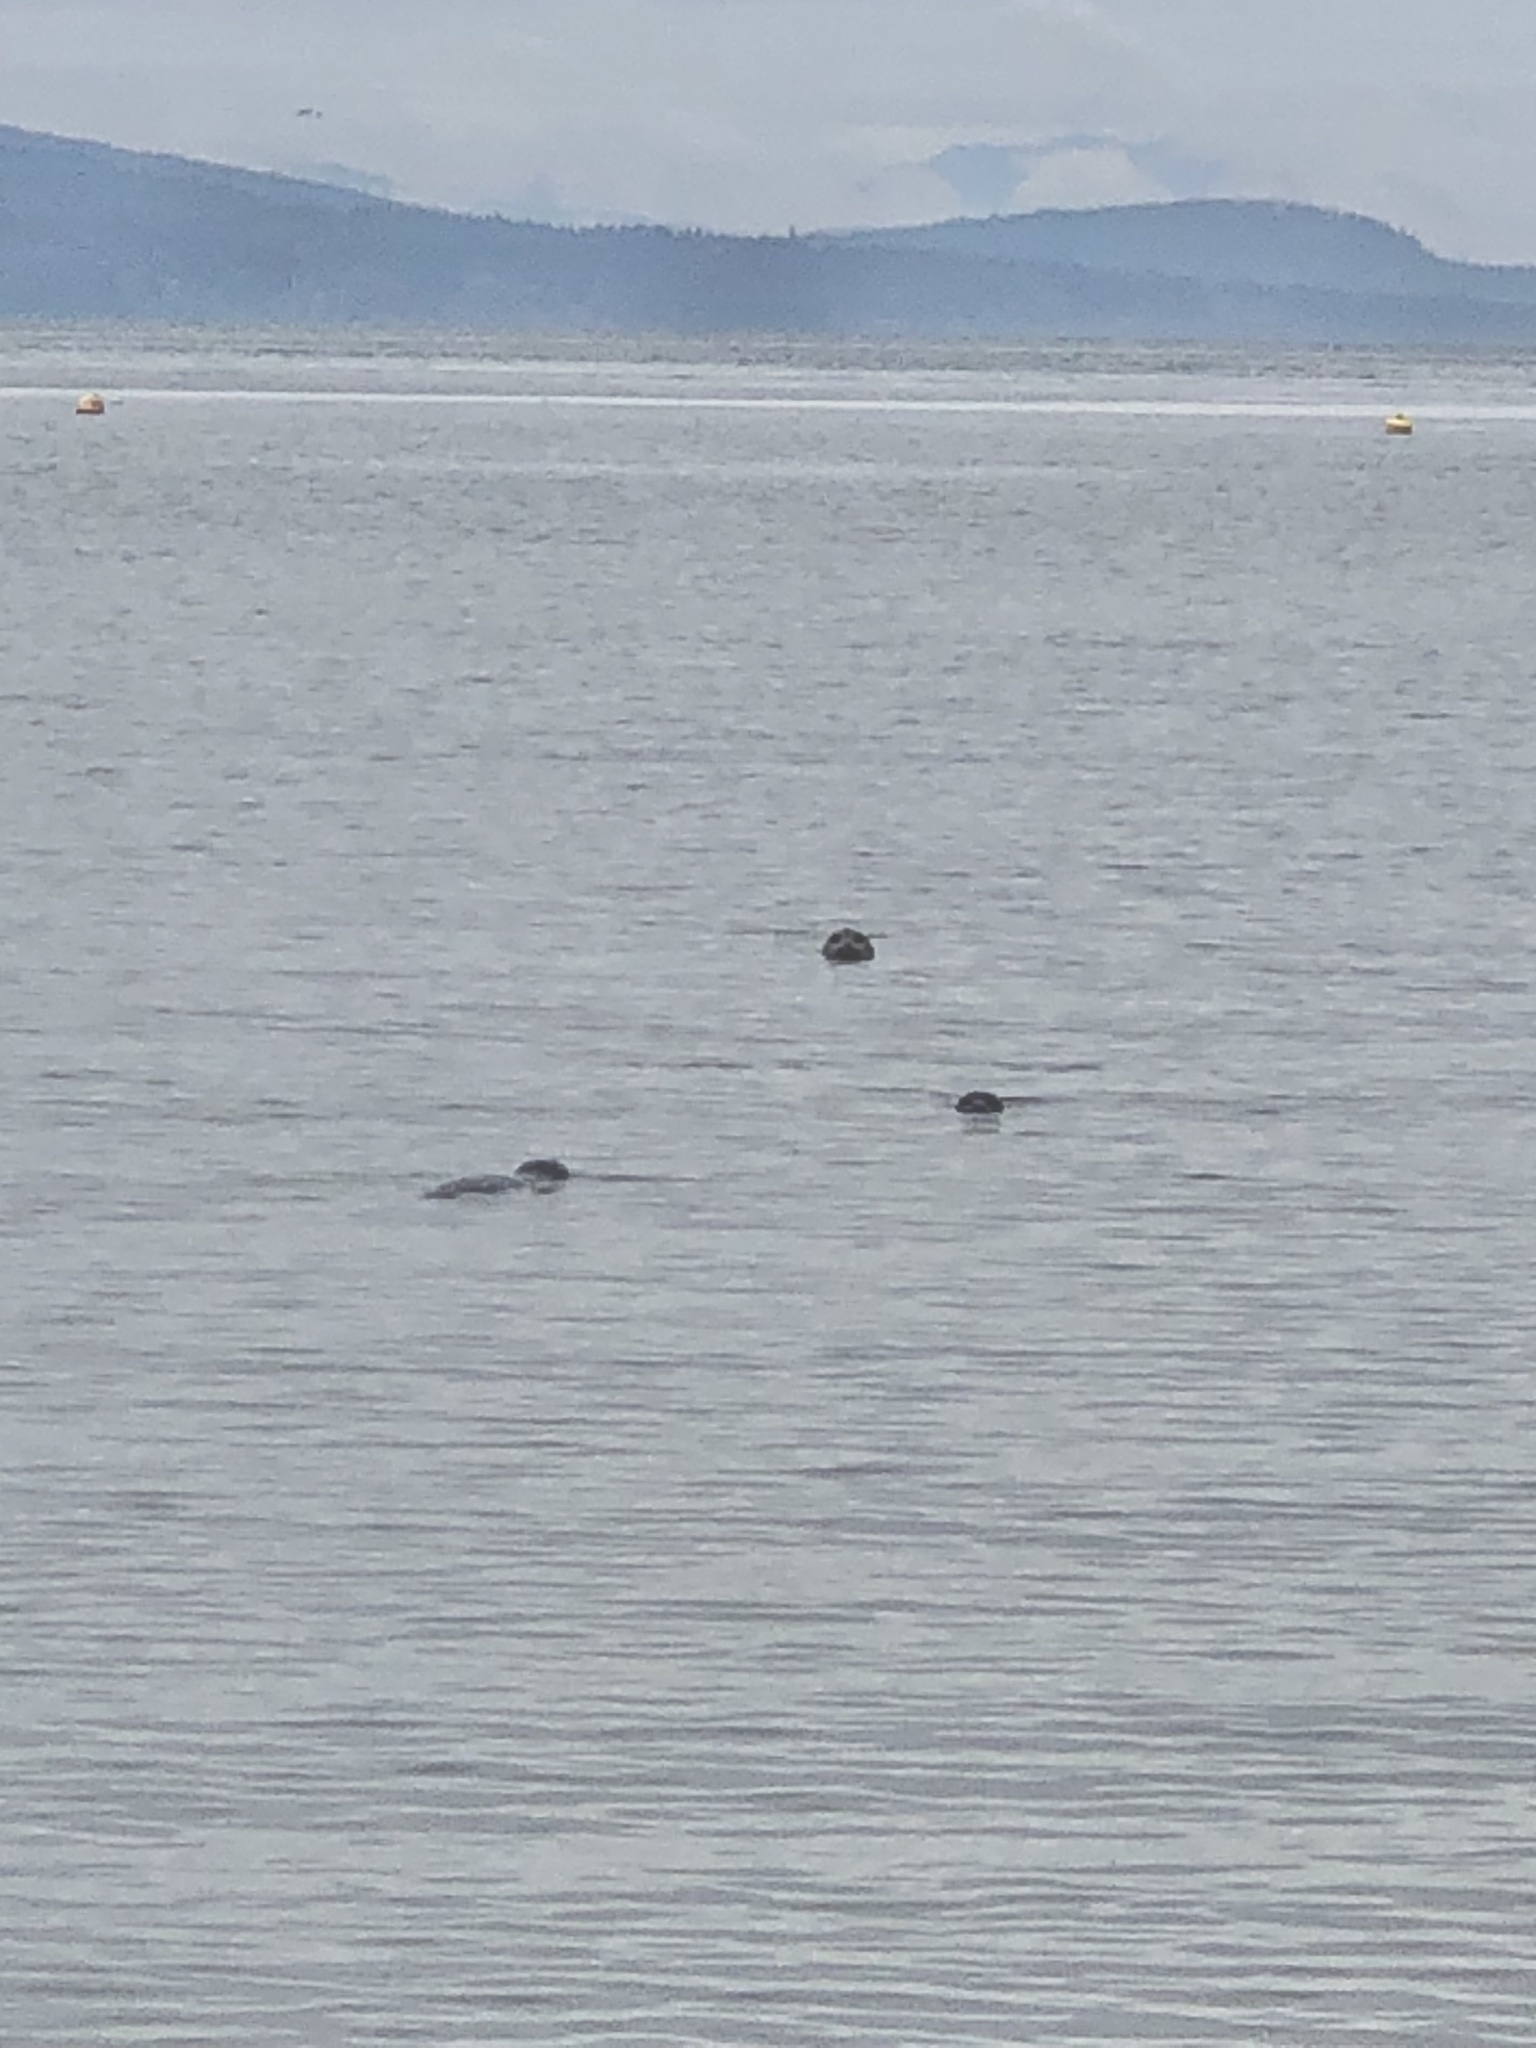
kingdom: Animalia
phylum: Chordata
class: Mammalia
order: Carnivora
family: Phocidae
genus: Phoca
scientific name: Phoca vitulina
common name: Harbor seal
